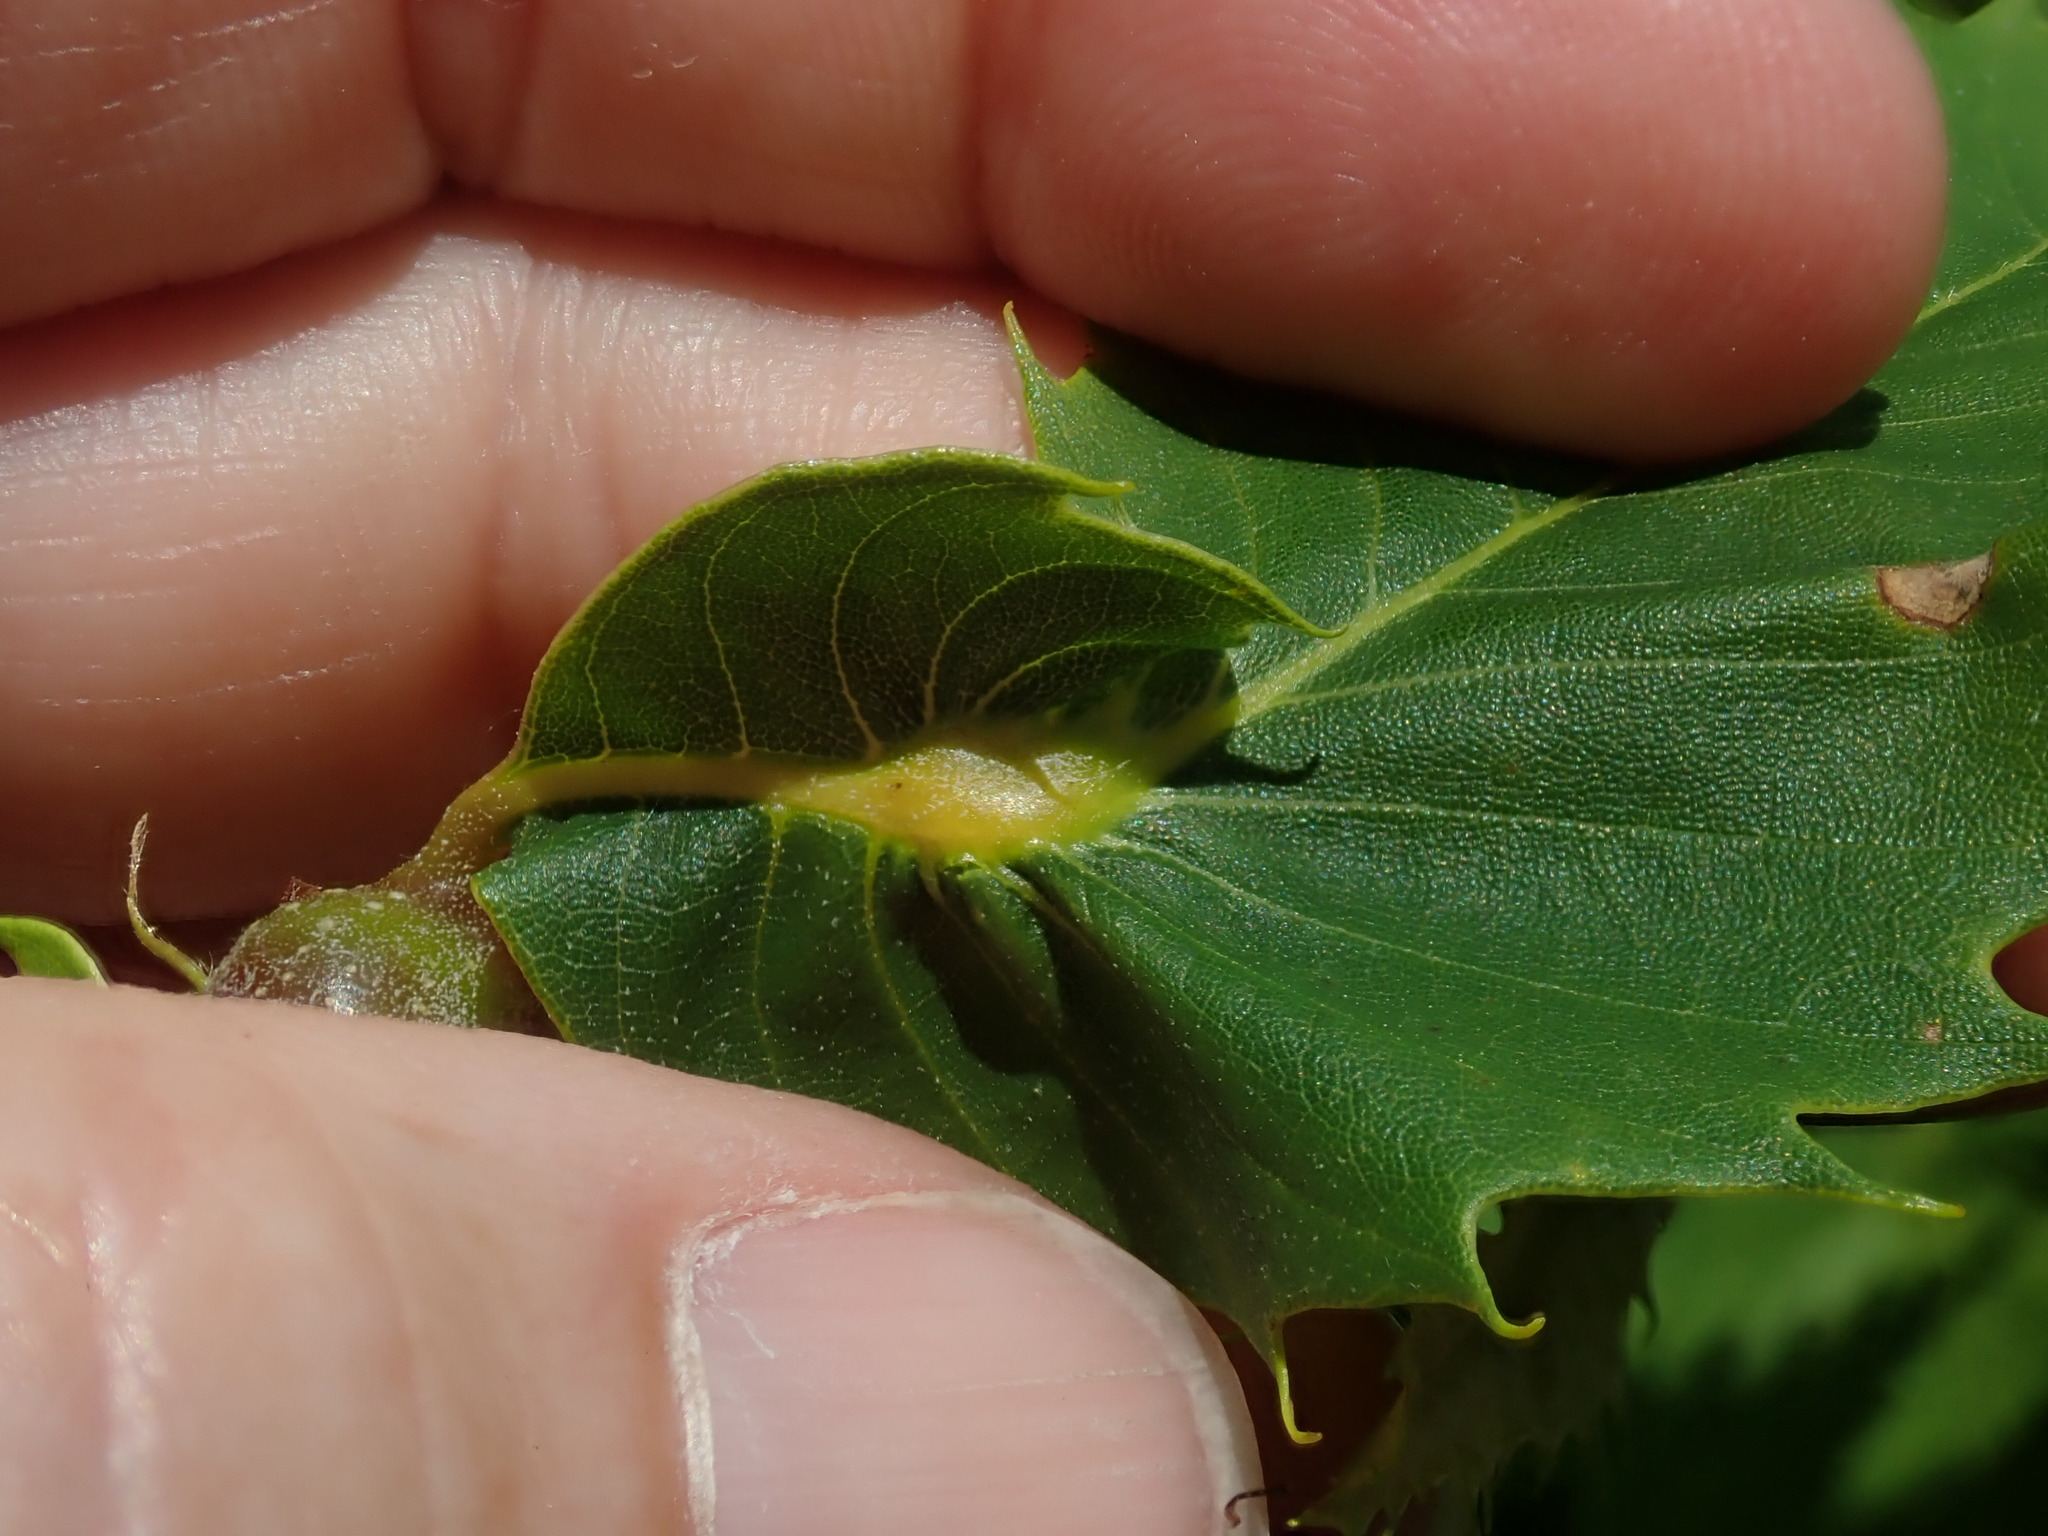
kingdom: Animalia
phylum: Arthropoda
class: Insecta
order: Hymenoptera
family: Cynipidae
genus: Dryocosmus
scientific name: Dryocosmus kuriphilus
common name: Asian chestnut gall wasp
